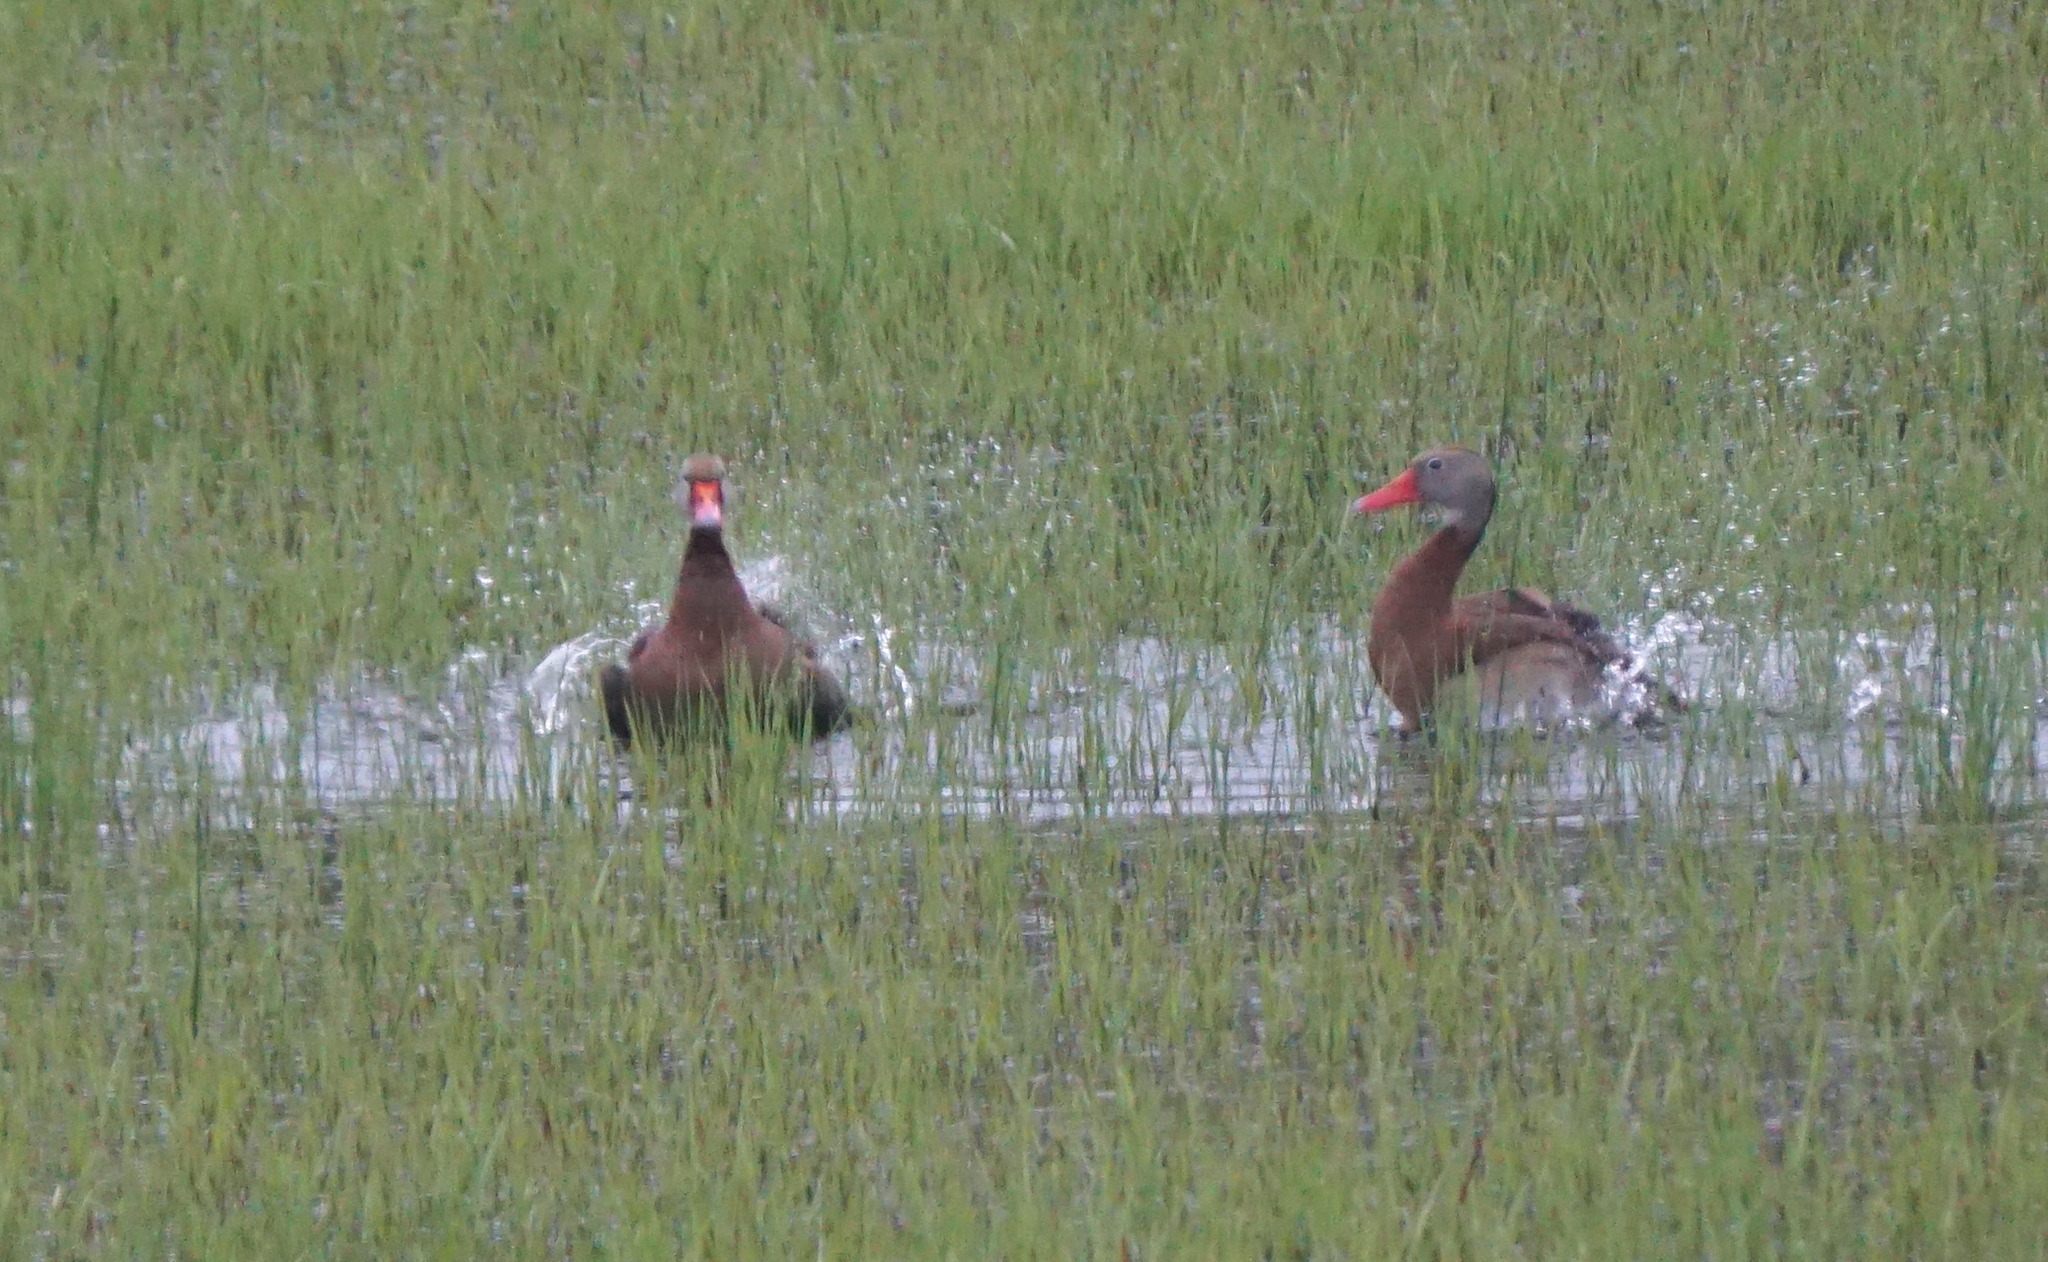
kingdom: Animalia
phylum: Chordata
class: Aves
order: Anseriformes
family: Anatidae
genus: Dendrocygna
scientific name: Dendrocygna autumnalis
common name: Black-bellied whistling duck
